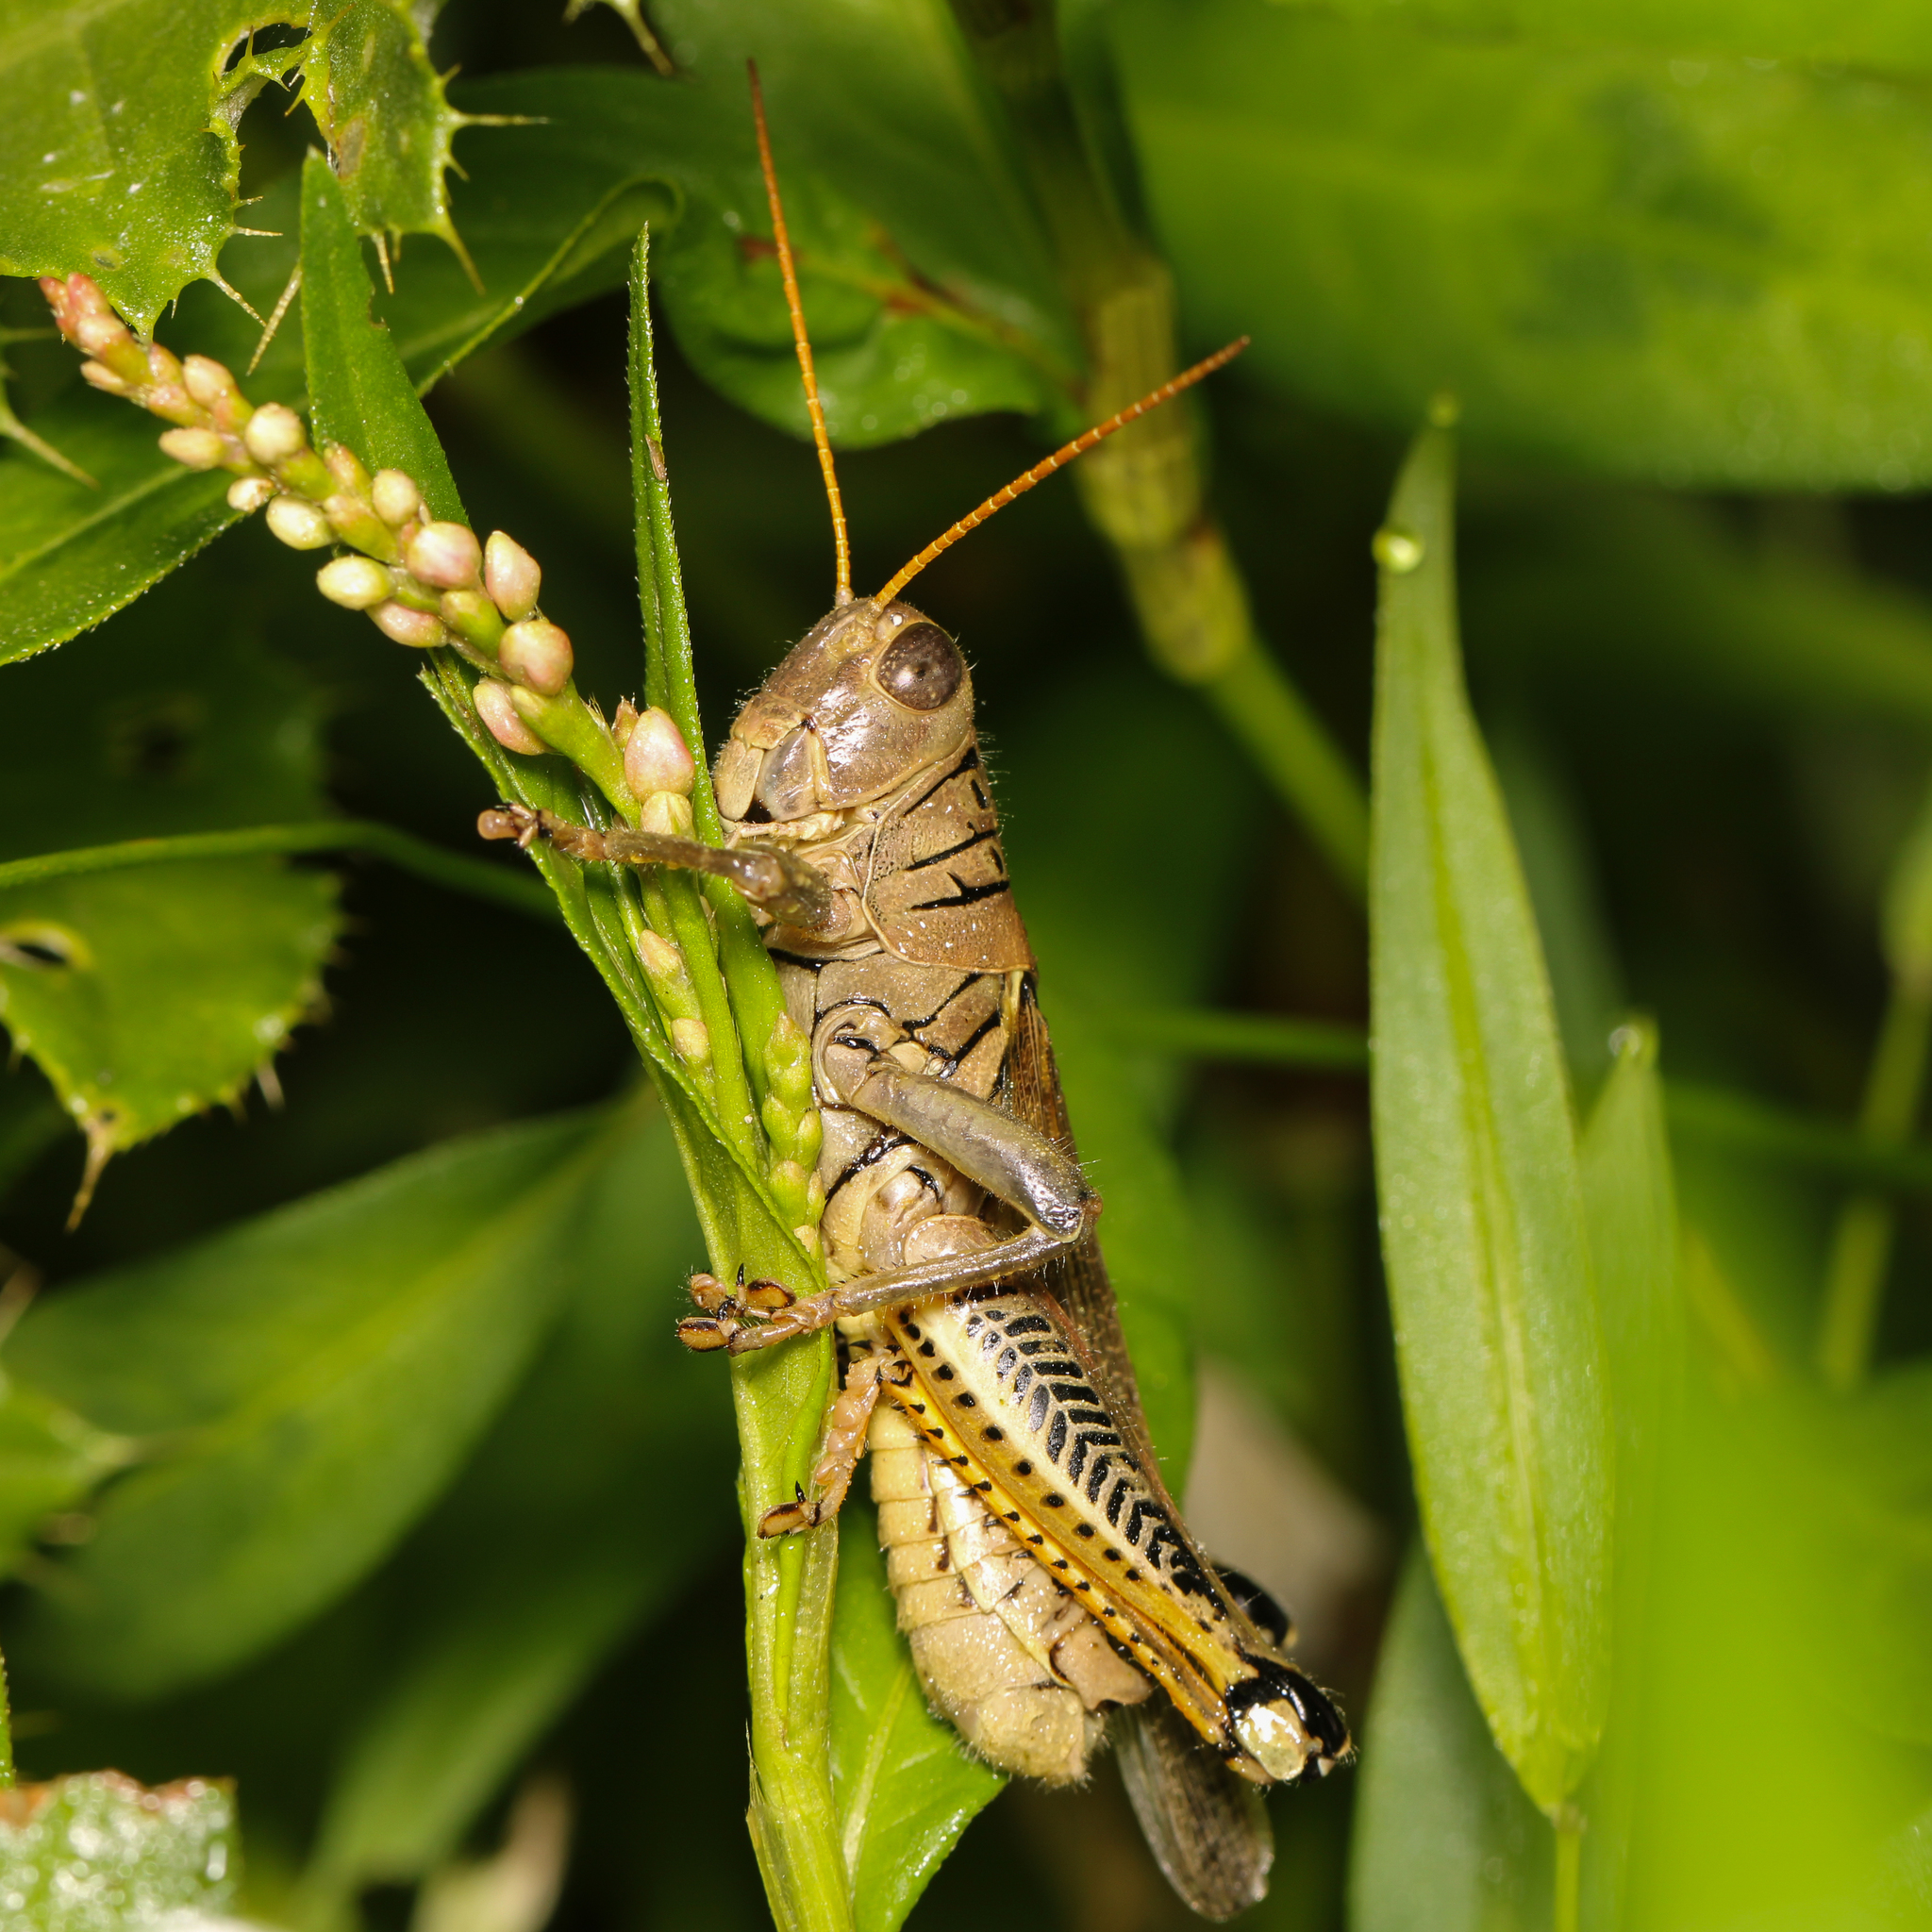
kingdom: Animalia
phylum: Arthropoda
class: Insecta
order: Orthoptera
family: Acrididae
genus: Melanoplus
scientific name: Melanoplus differentialis
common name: Differential grasshopper
